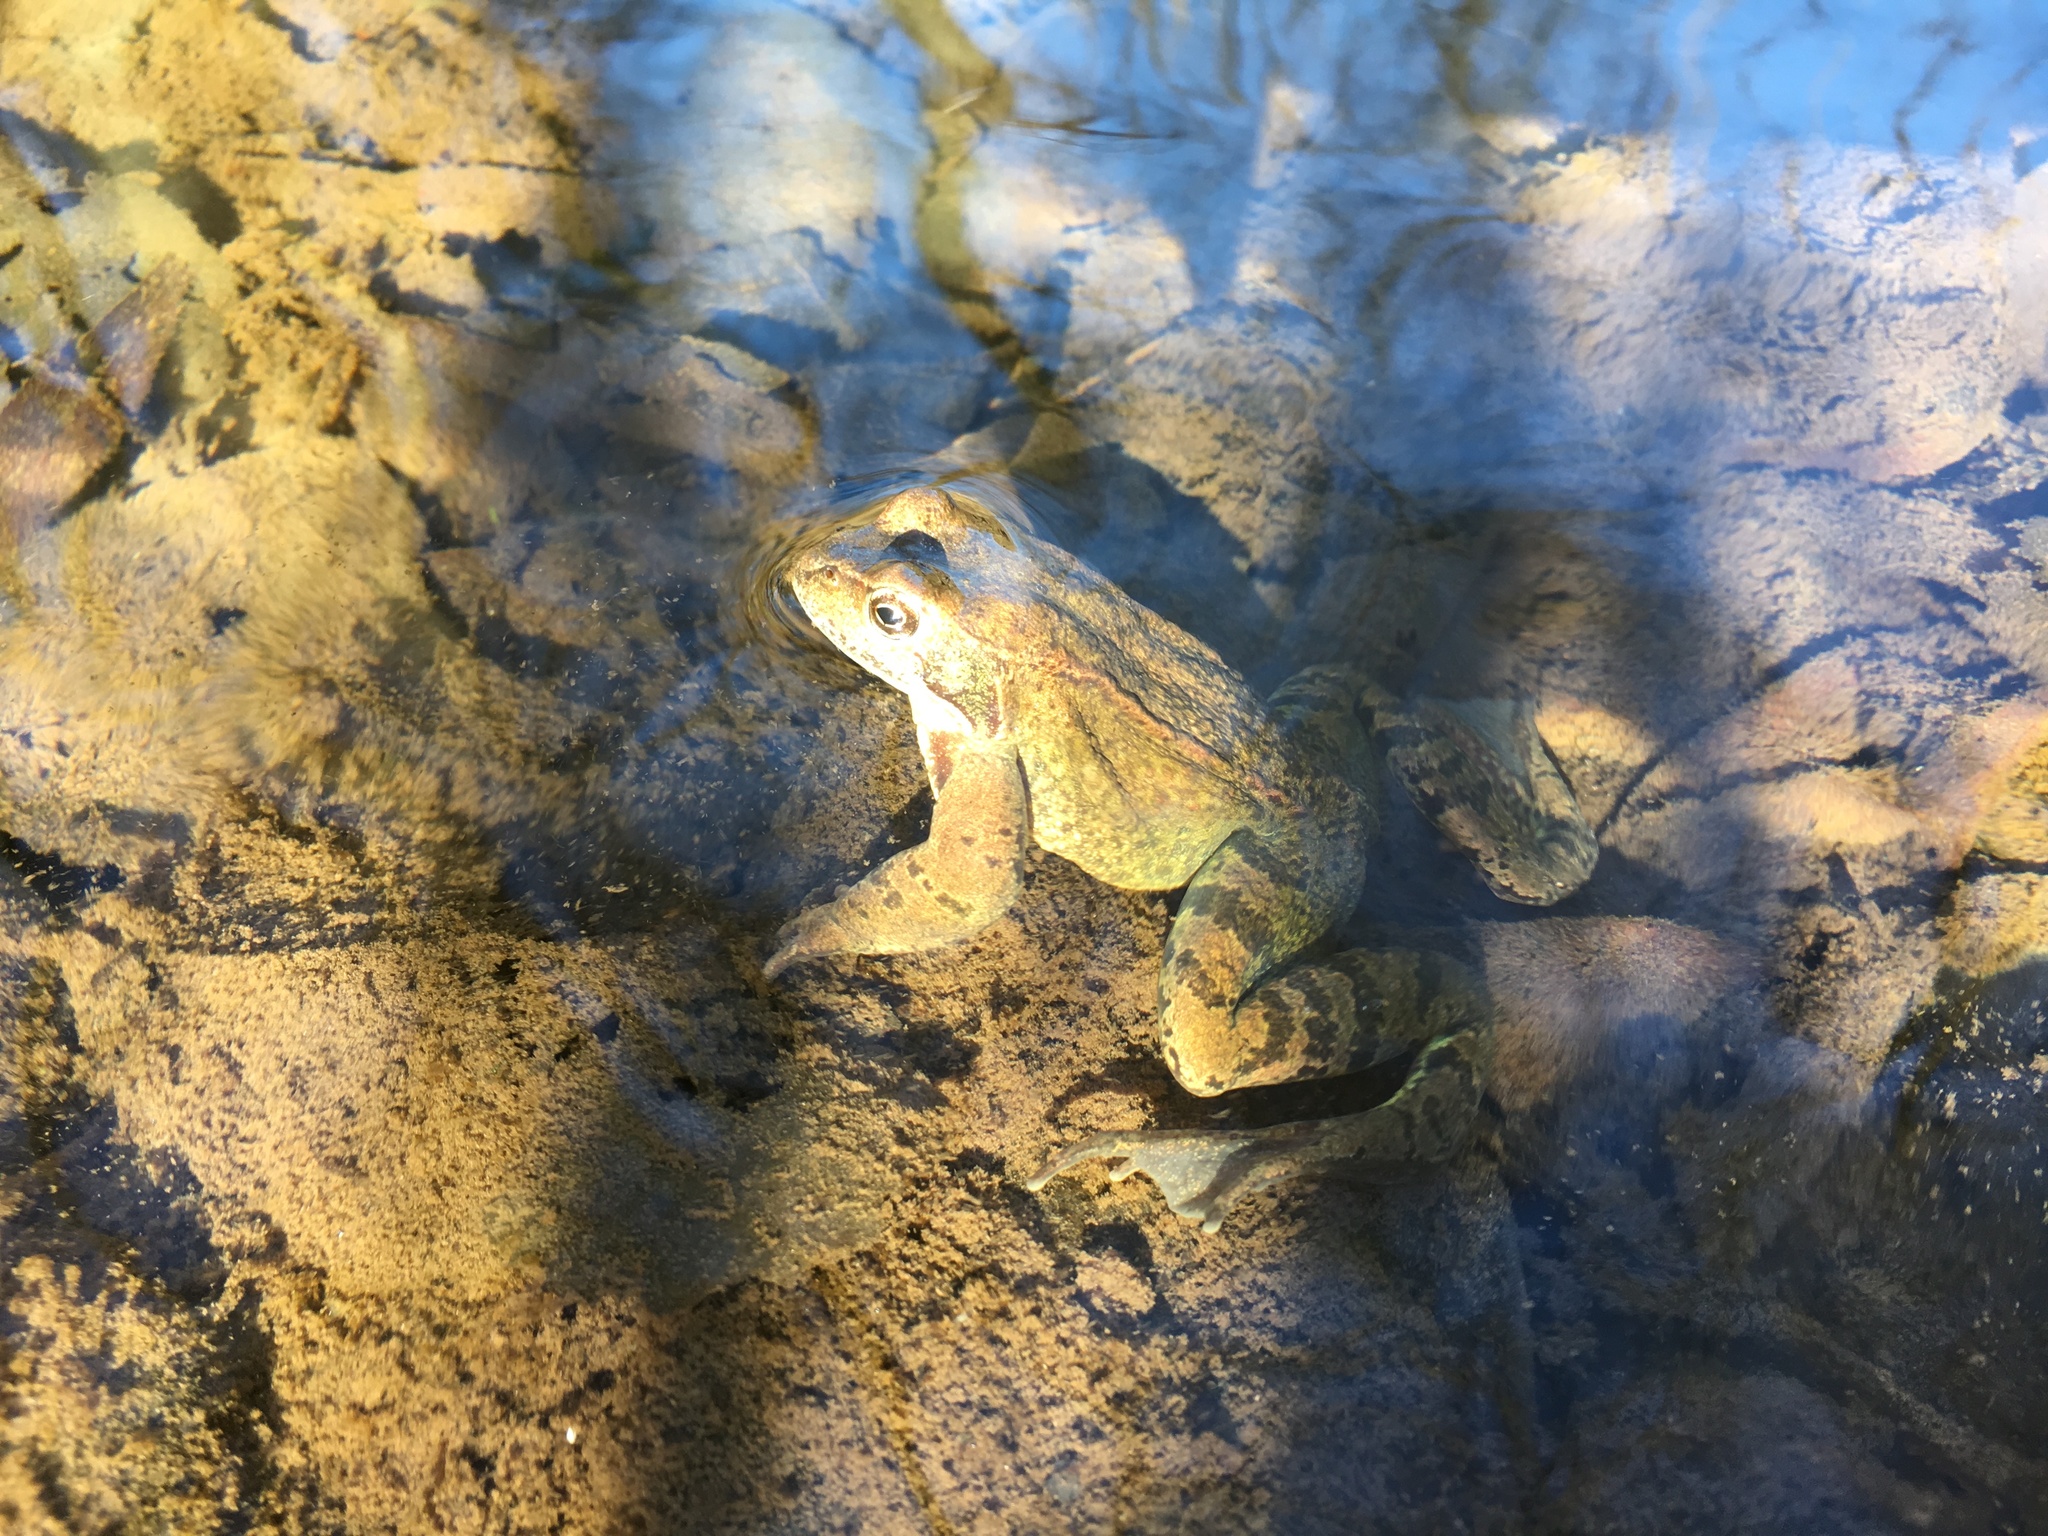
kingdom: Animalia
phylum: Chordata
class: Amphibia
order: Anura
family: Ranidae
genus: Rana
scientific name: Rana temporaria
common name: Common frog
